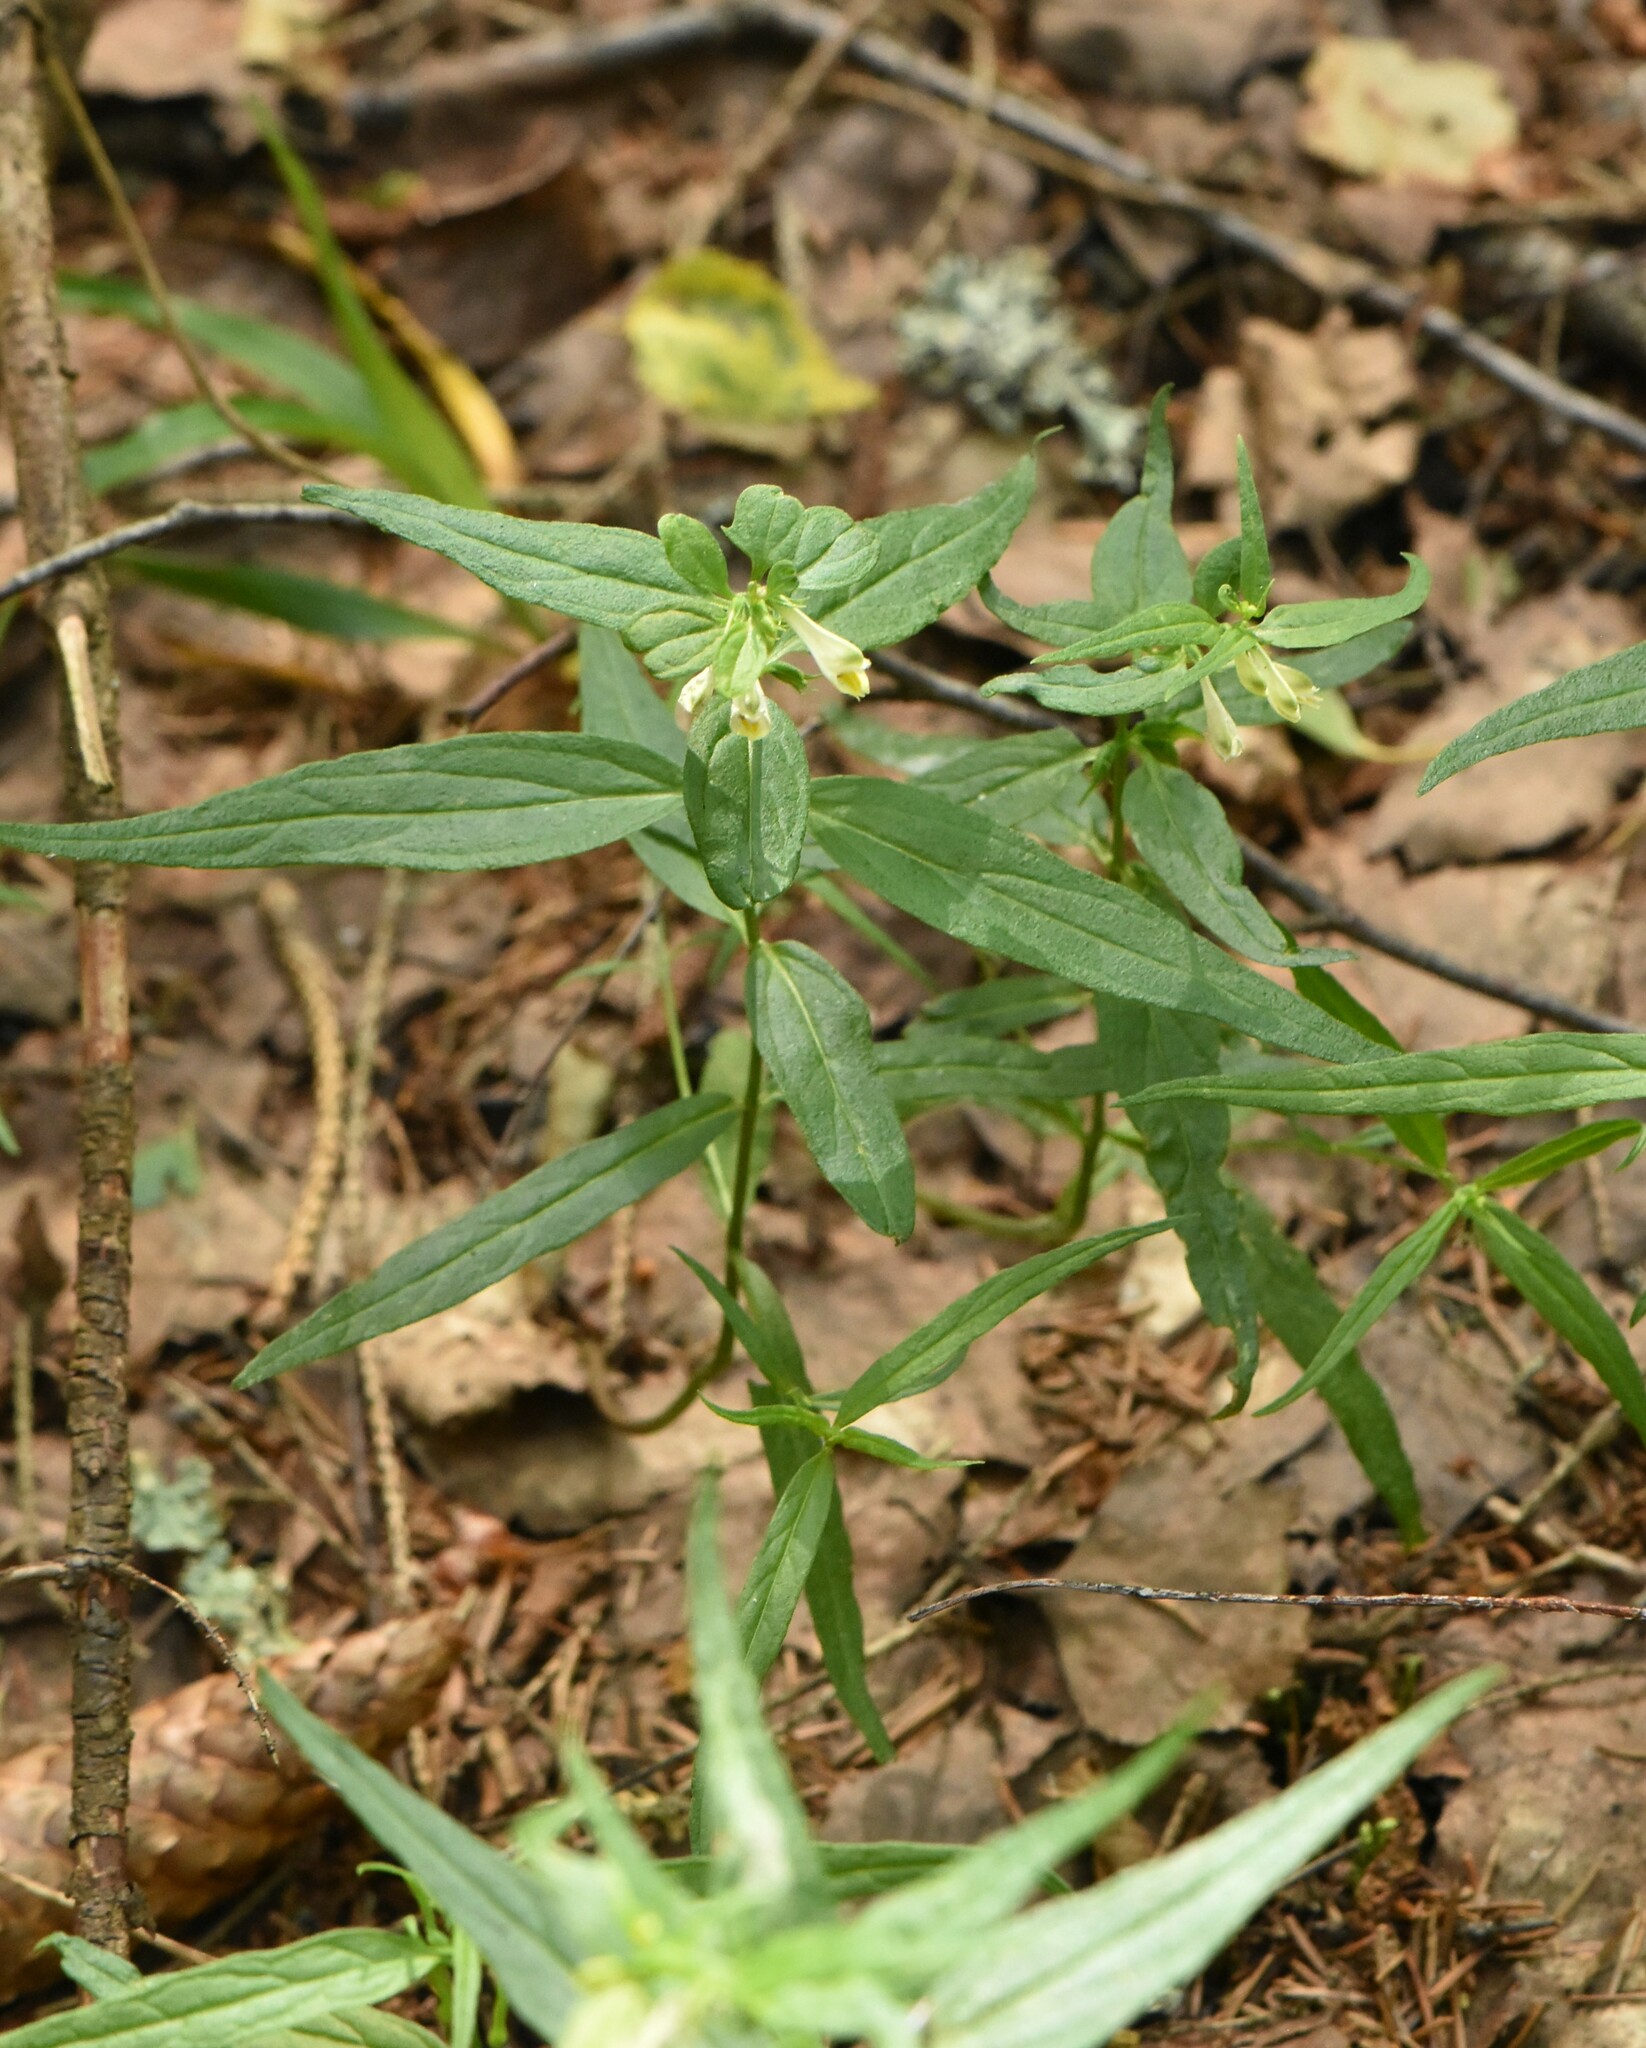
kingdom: Plantae
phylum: Tracheophyta
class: Magnoliopsida
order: Lamiales
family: Orobanchaceae
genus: Melampyrum
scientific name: Melampyrum pratense
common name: Common cow-wheat
